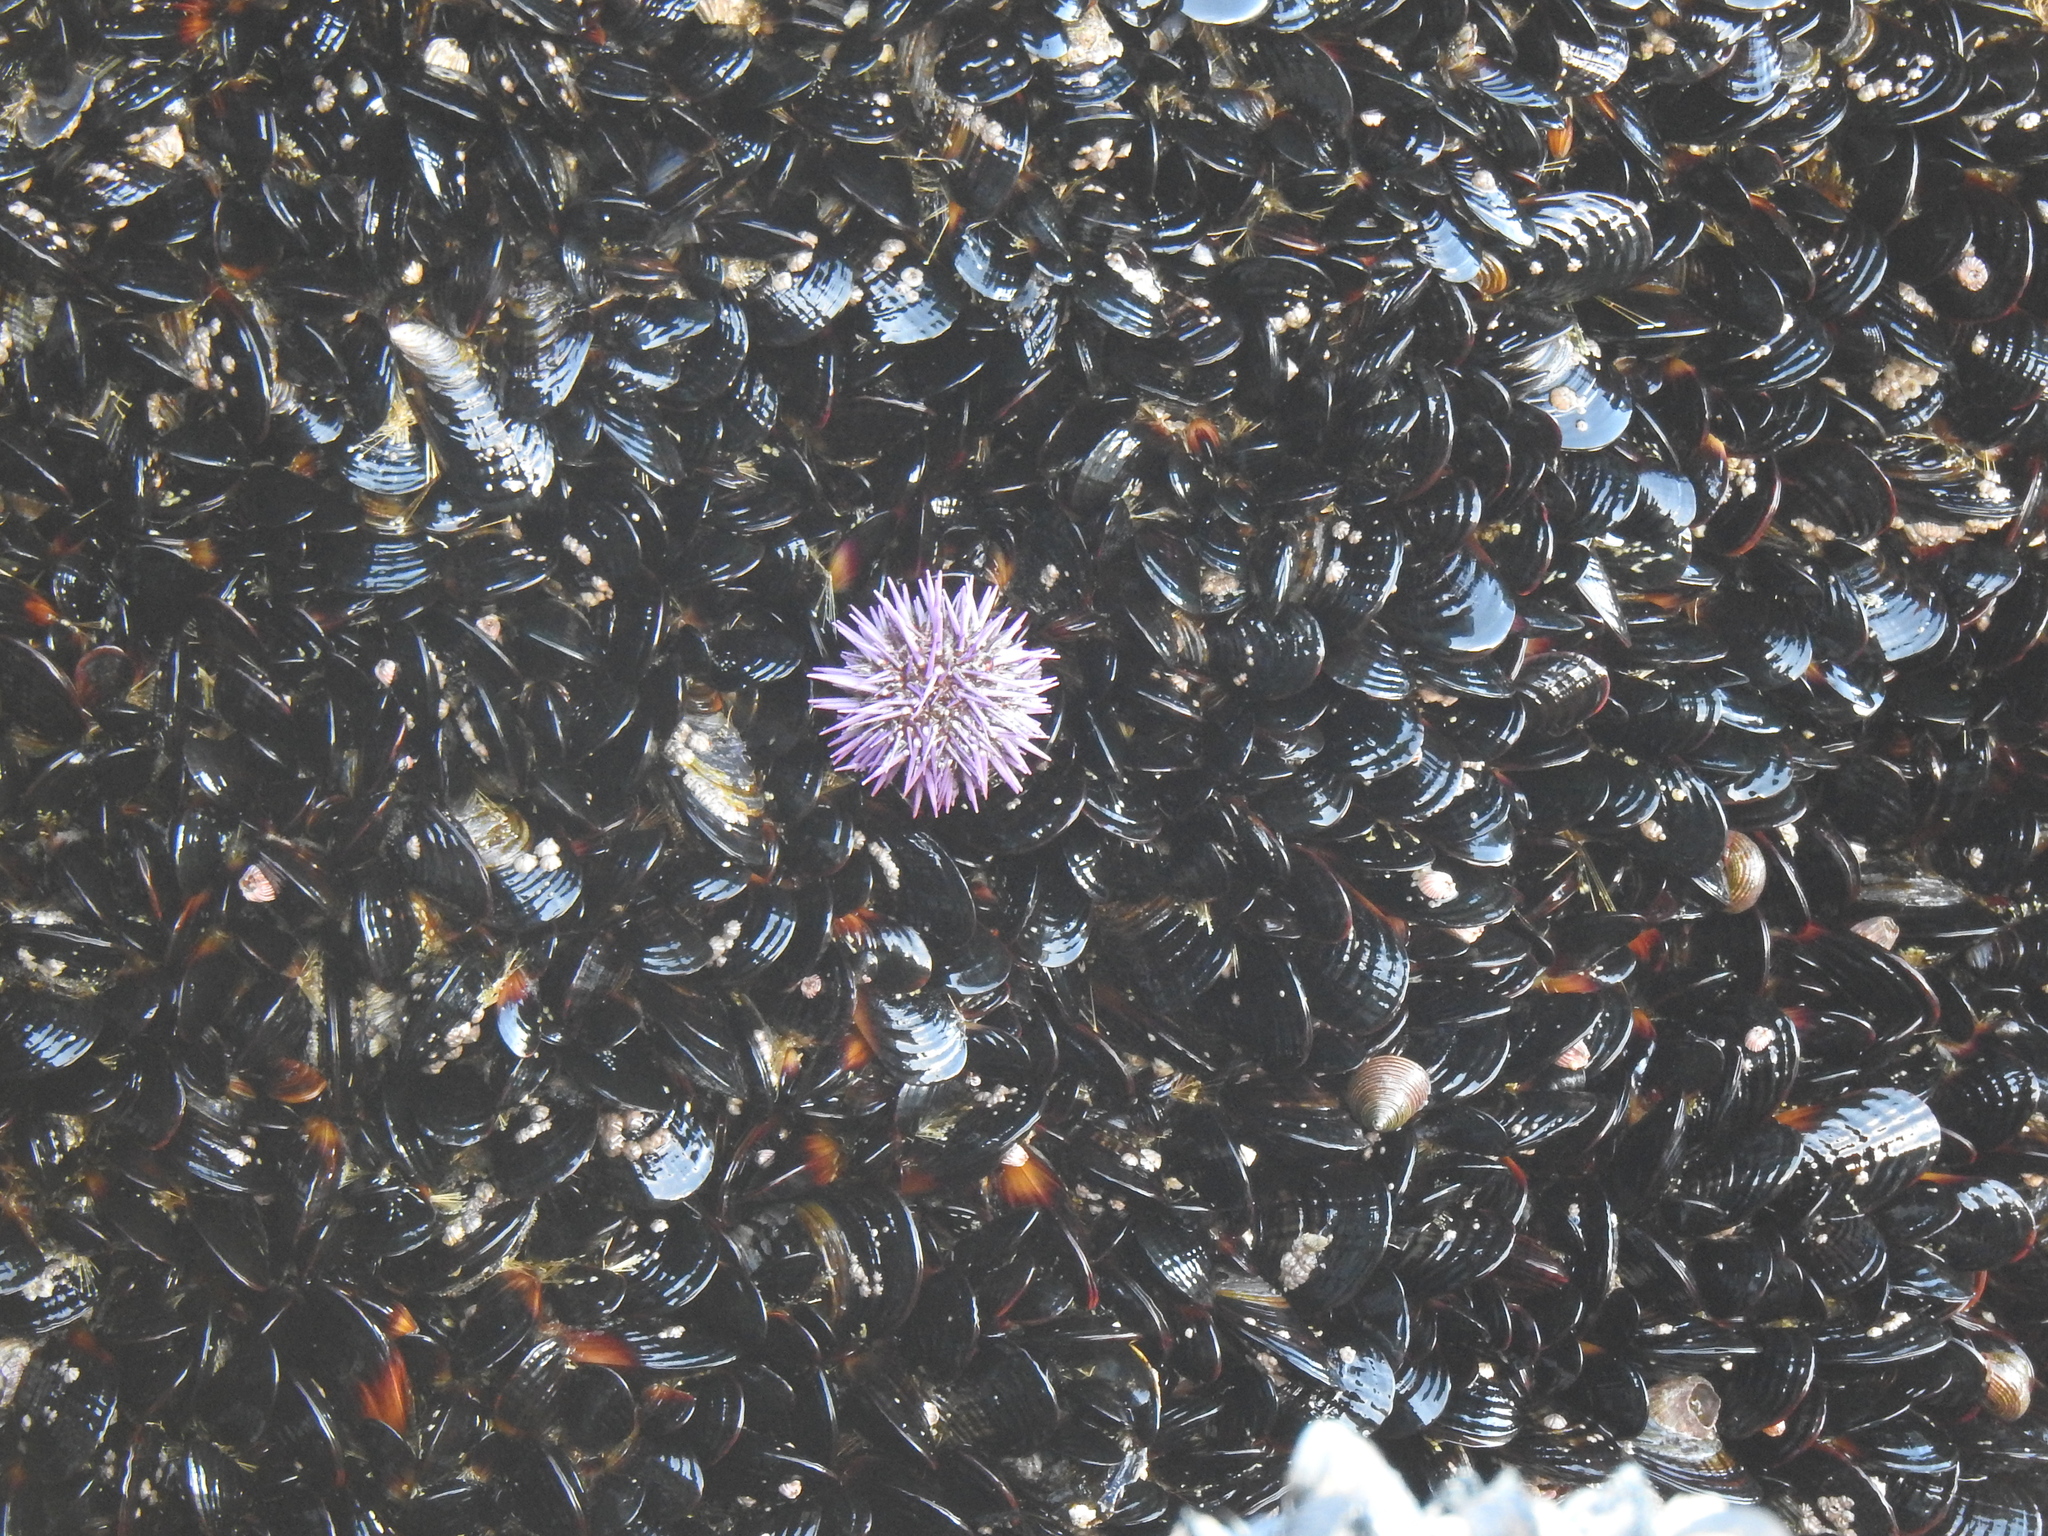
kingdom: Animalia
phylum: Echinodermata
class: Echinoidea
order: Camarodonta
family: Strongylocentrotidae
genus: Strongylocentrotus
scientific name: Strongylocentrotus purpuratus
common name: Purple sea urchin
